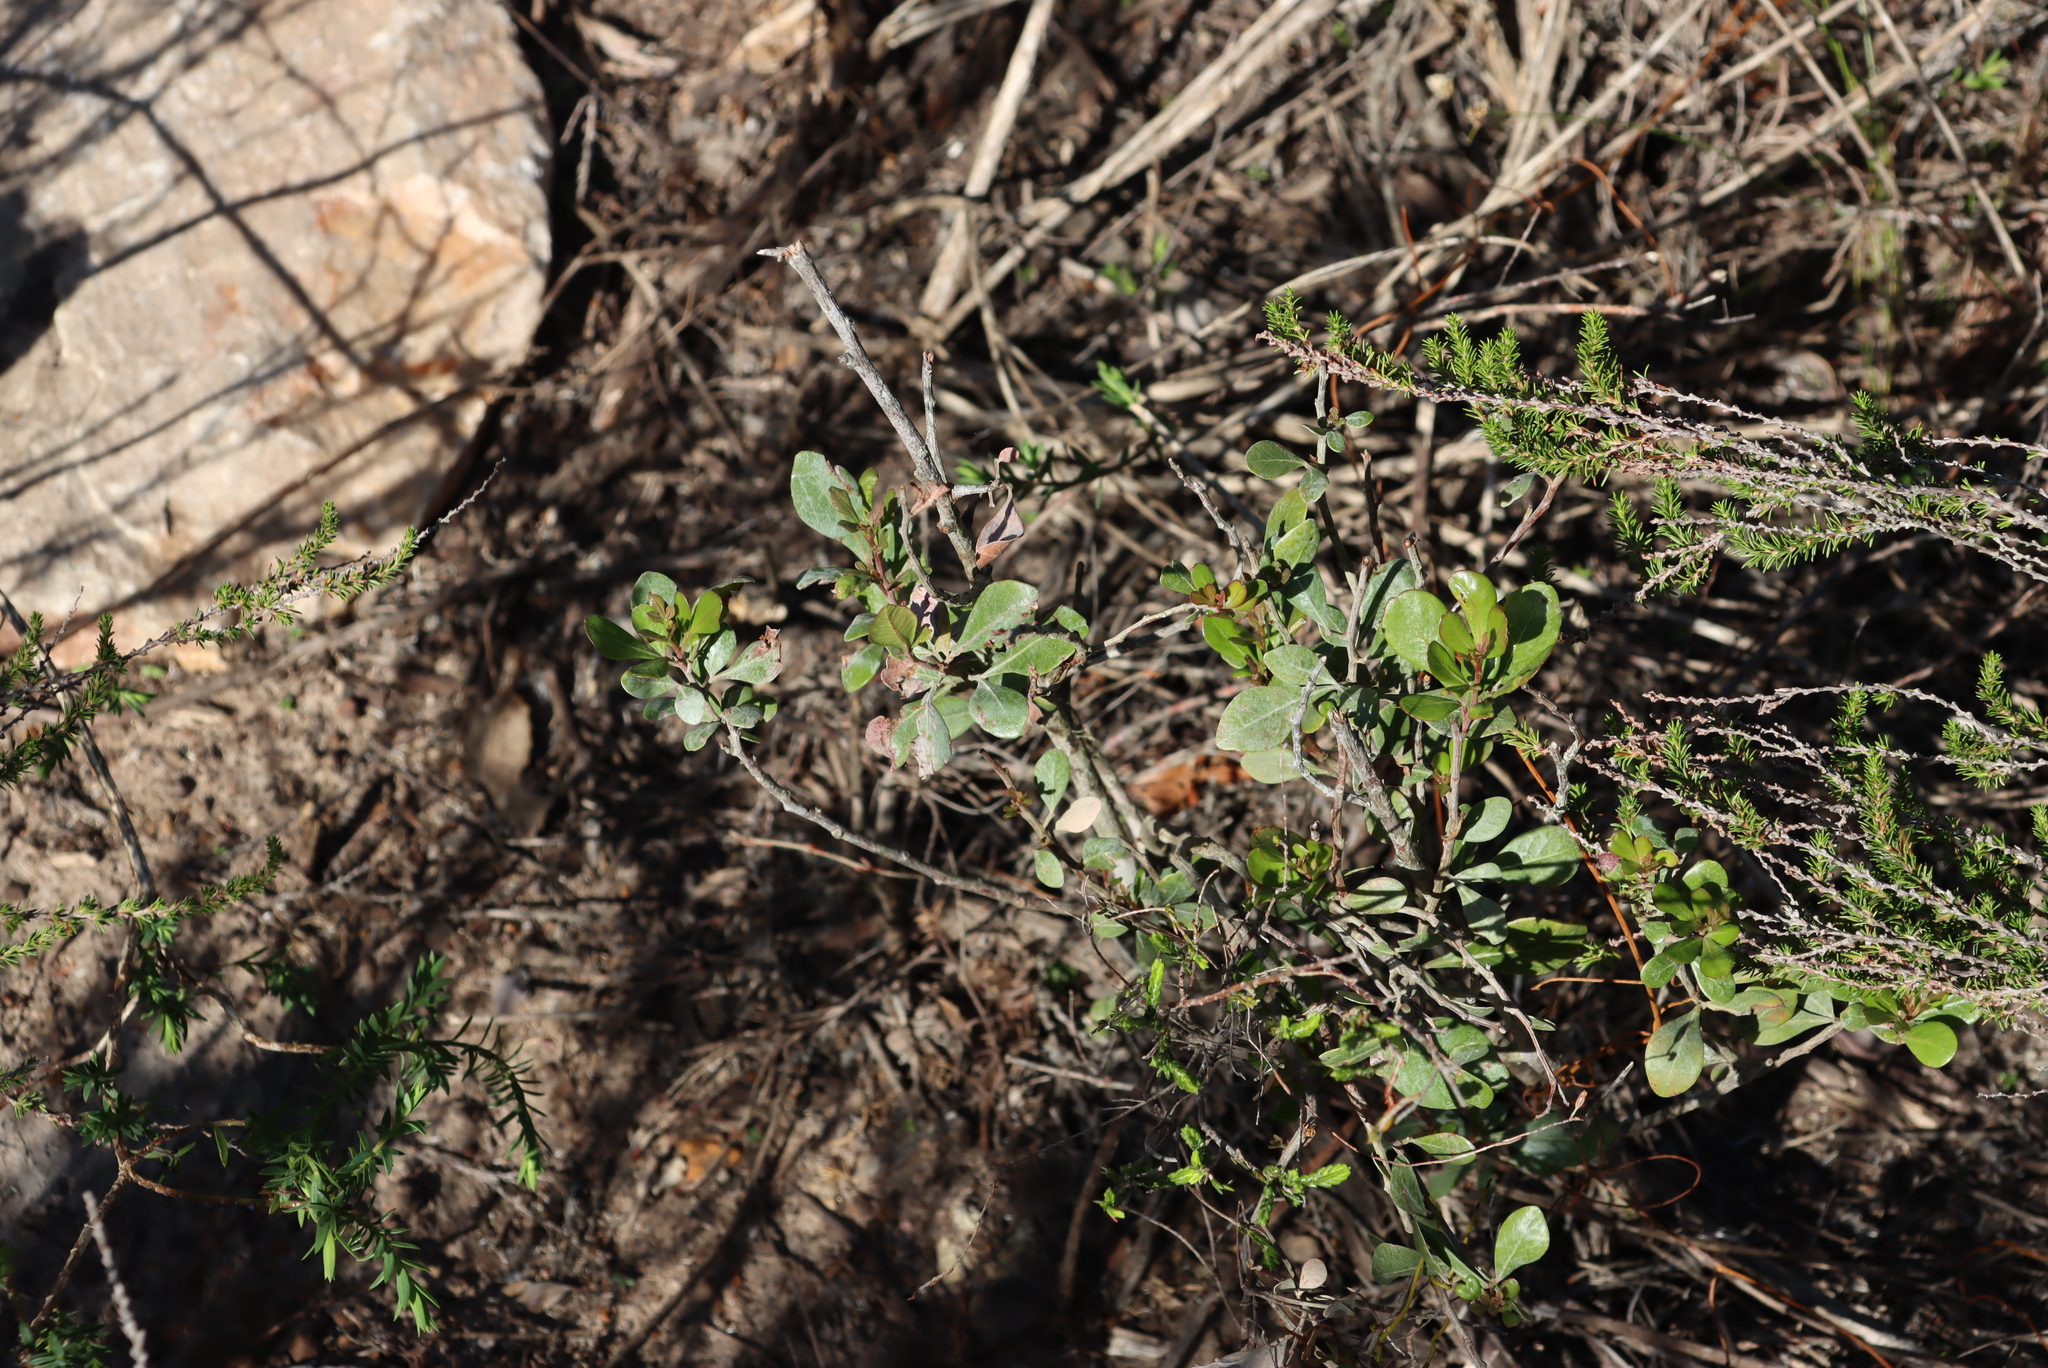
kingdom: Plantae
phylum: Tracheophyta
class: Magnoliopsida
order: Sapindales
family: Anacardiaceae
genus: Searsia
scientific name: Searsia lucida
